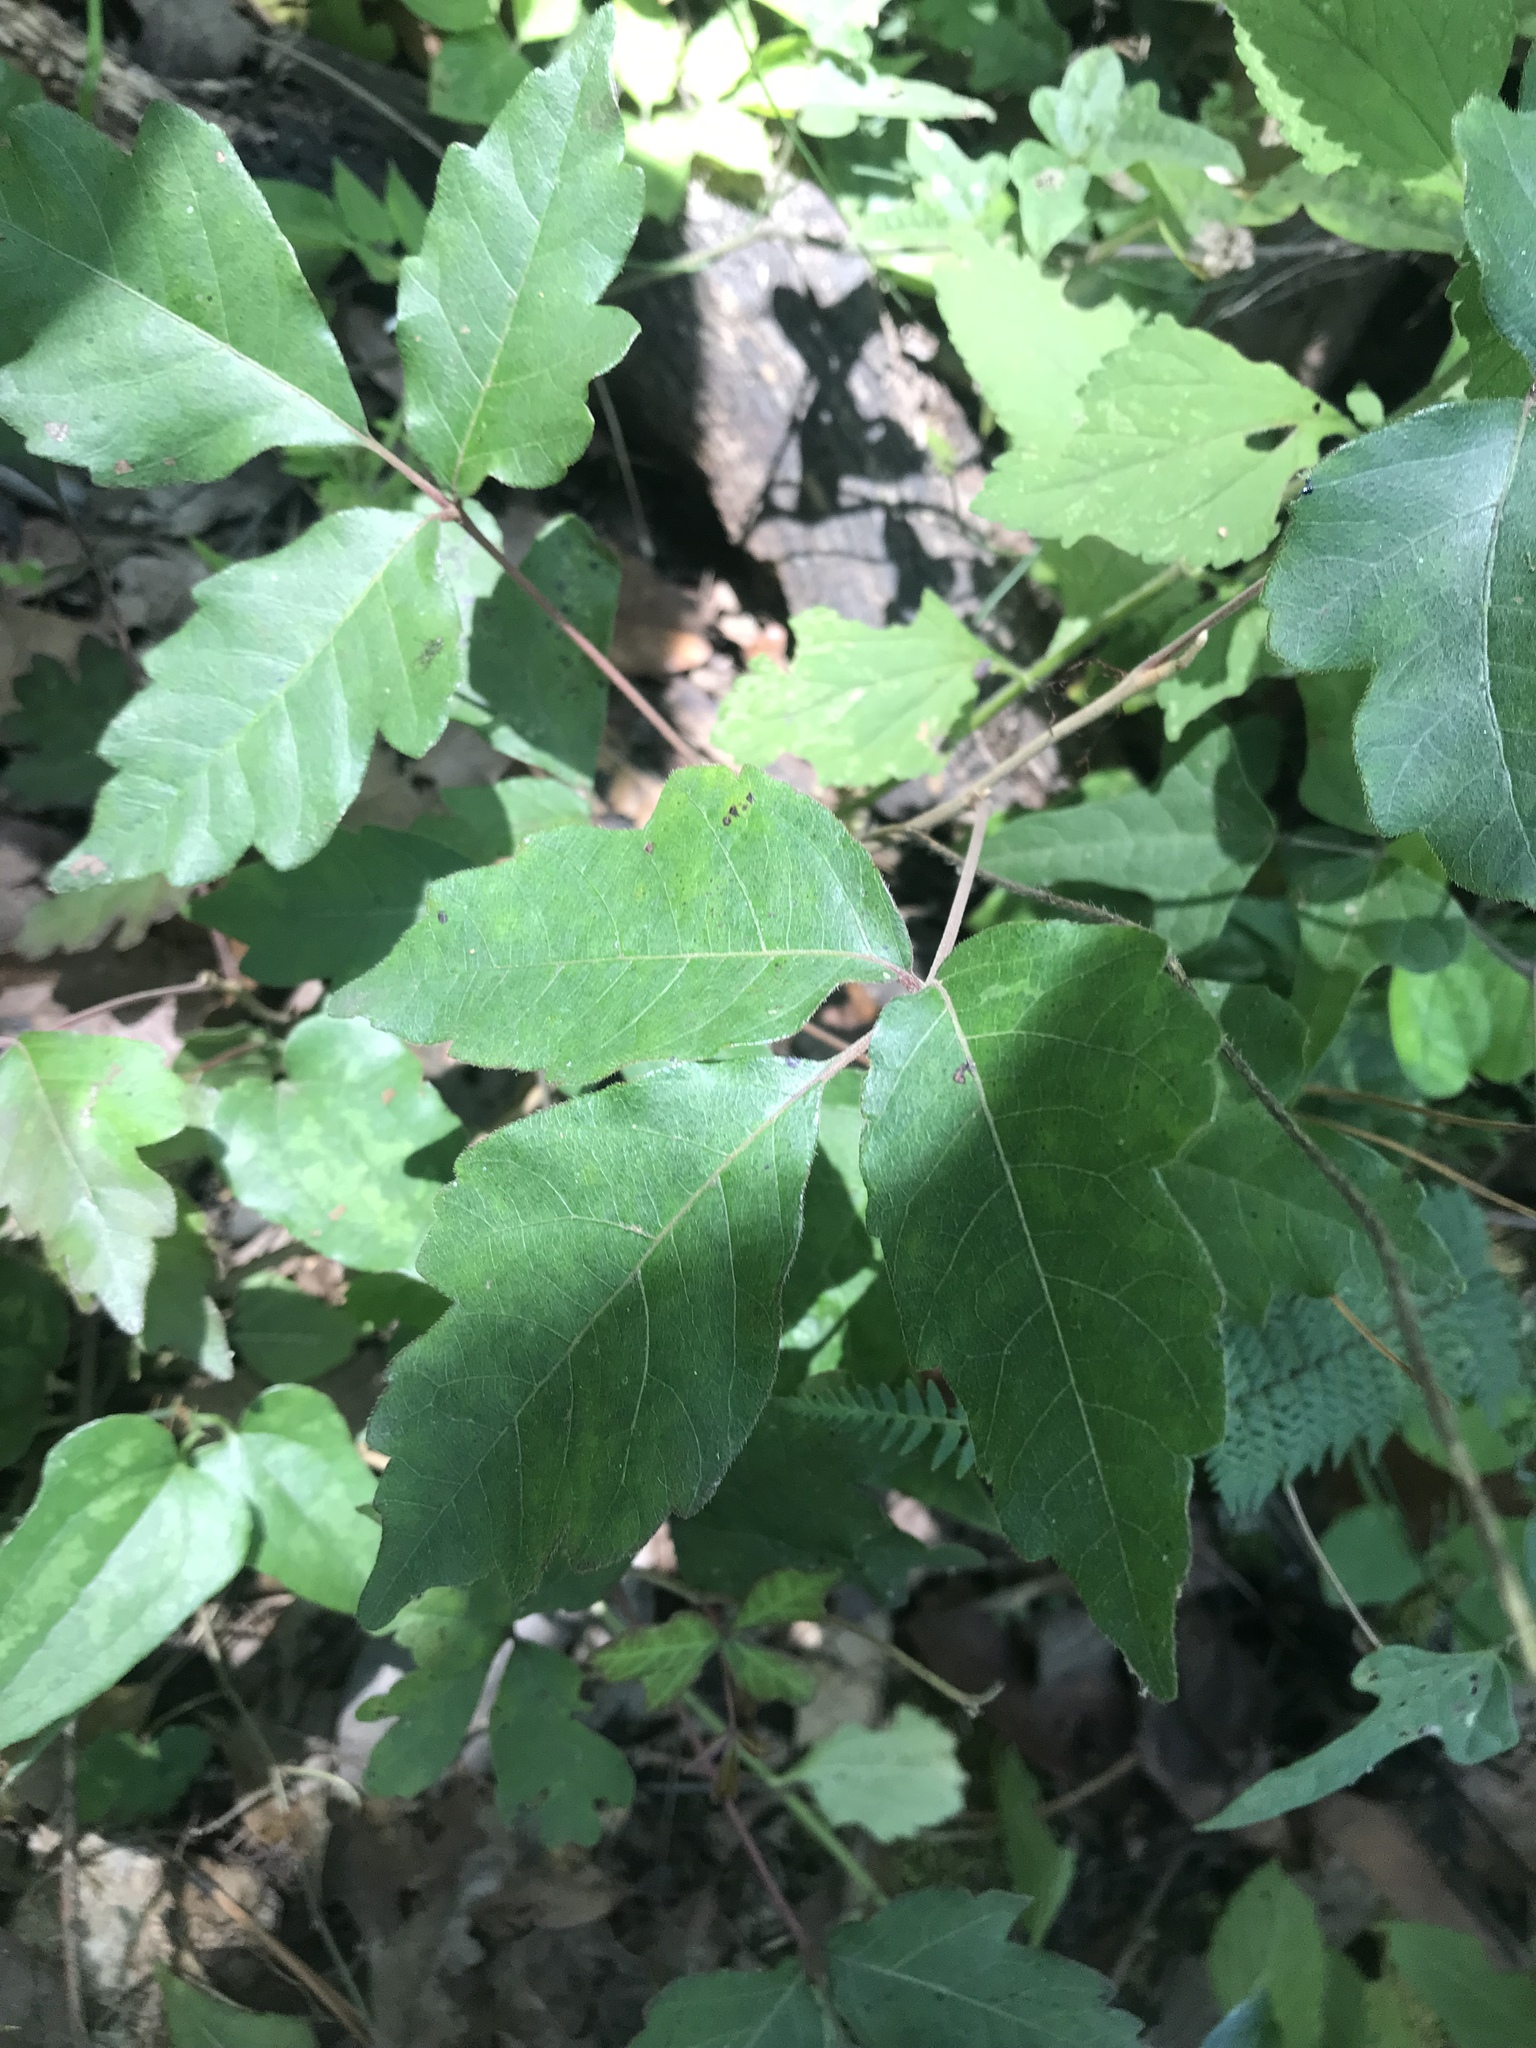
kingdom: Plantae
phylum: Tracheophyta
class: Magnoliopsida
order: Sapindales
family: Anacardiaceae
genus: Toxicodendron
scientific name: Toxicodendron radicans
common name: Poison ivy
